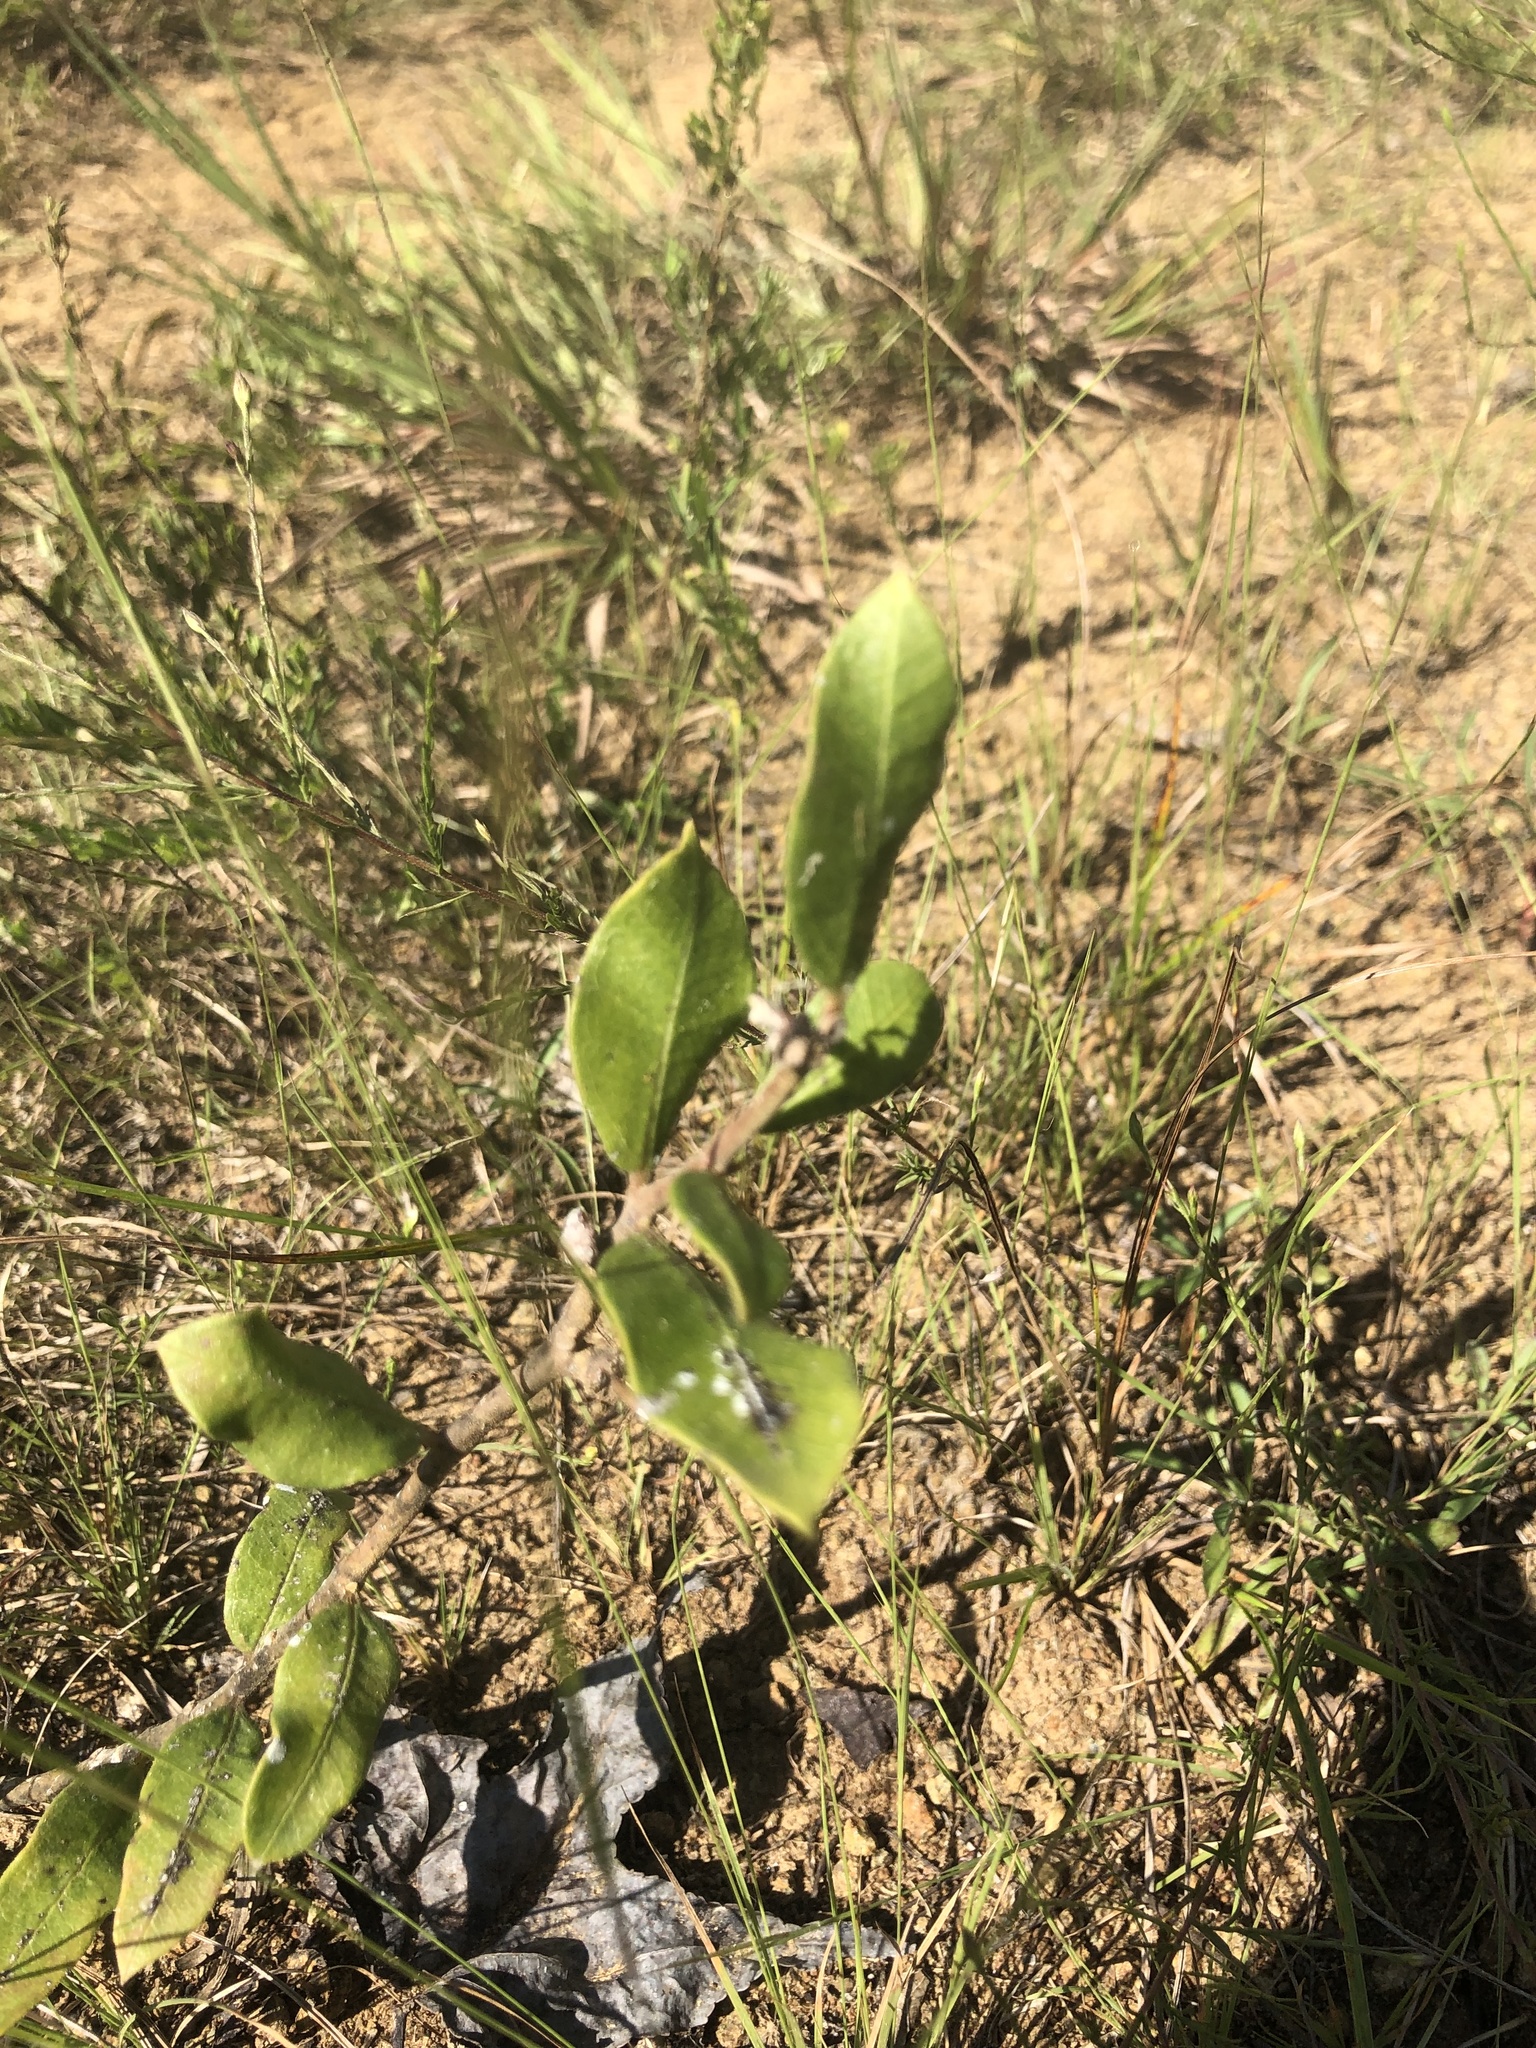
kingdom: Plantae
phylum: Tracheophyta
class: Magnoliopsida
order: Gentianales
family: Apocynaceae
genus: Asclepias
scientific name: Asclepias viridiflora
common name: Green comet milkweed
